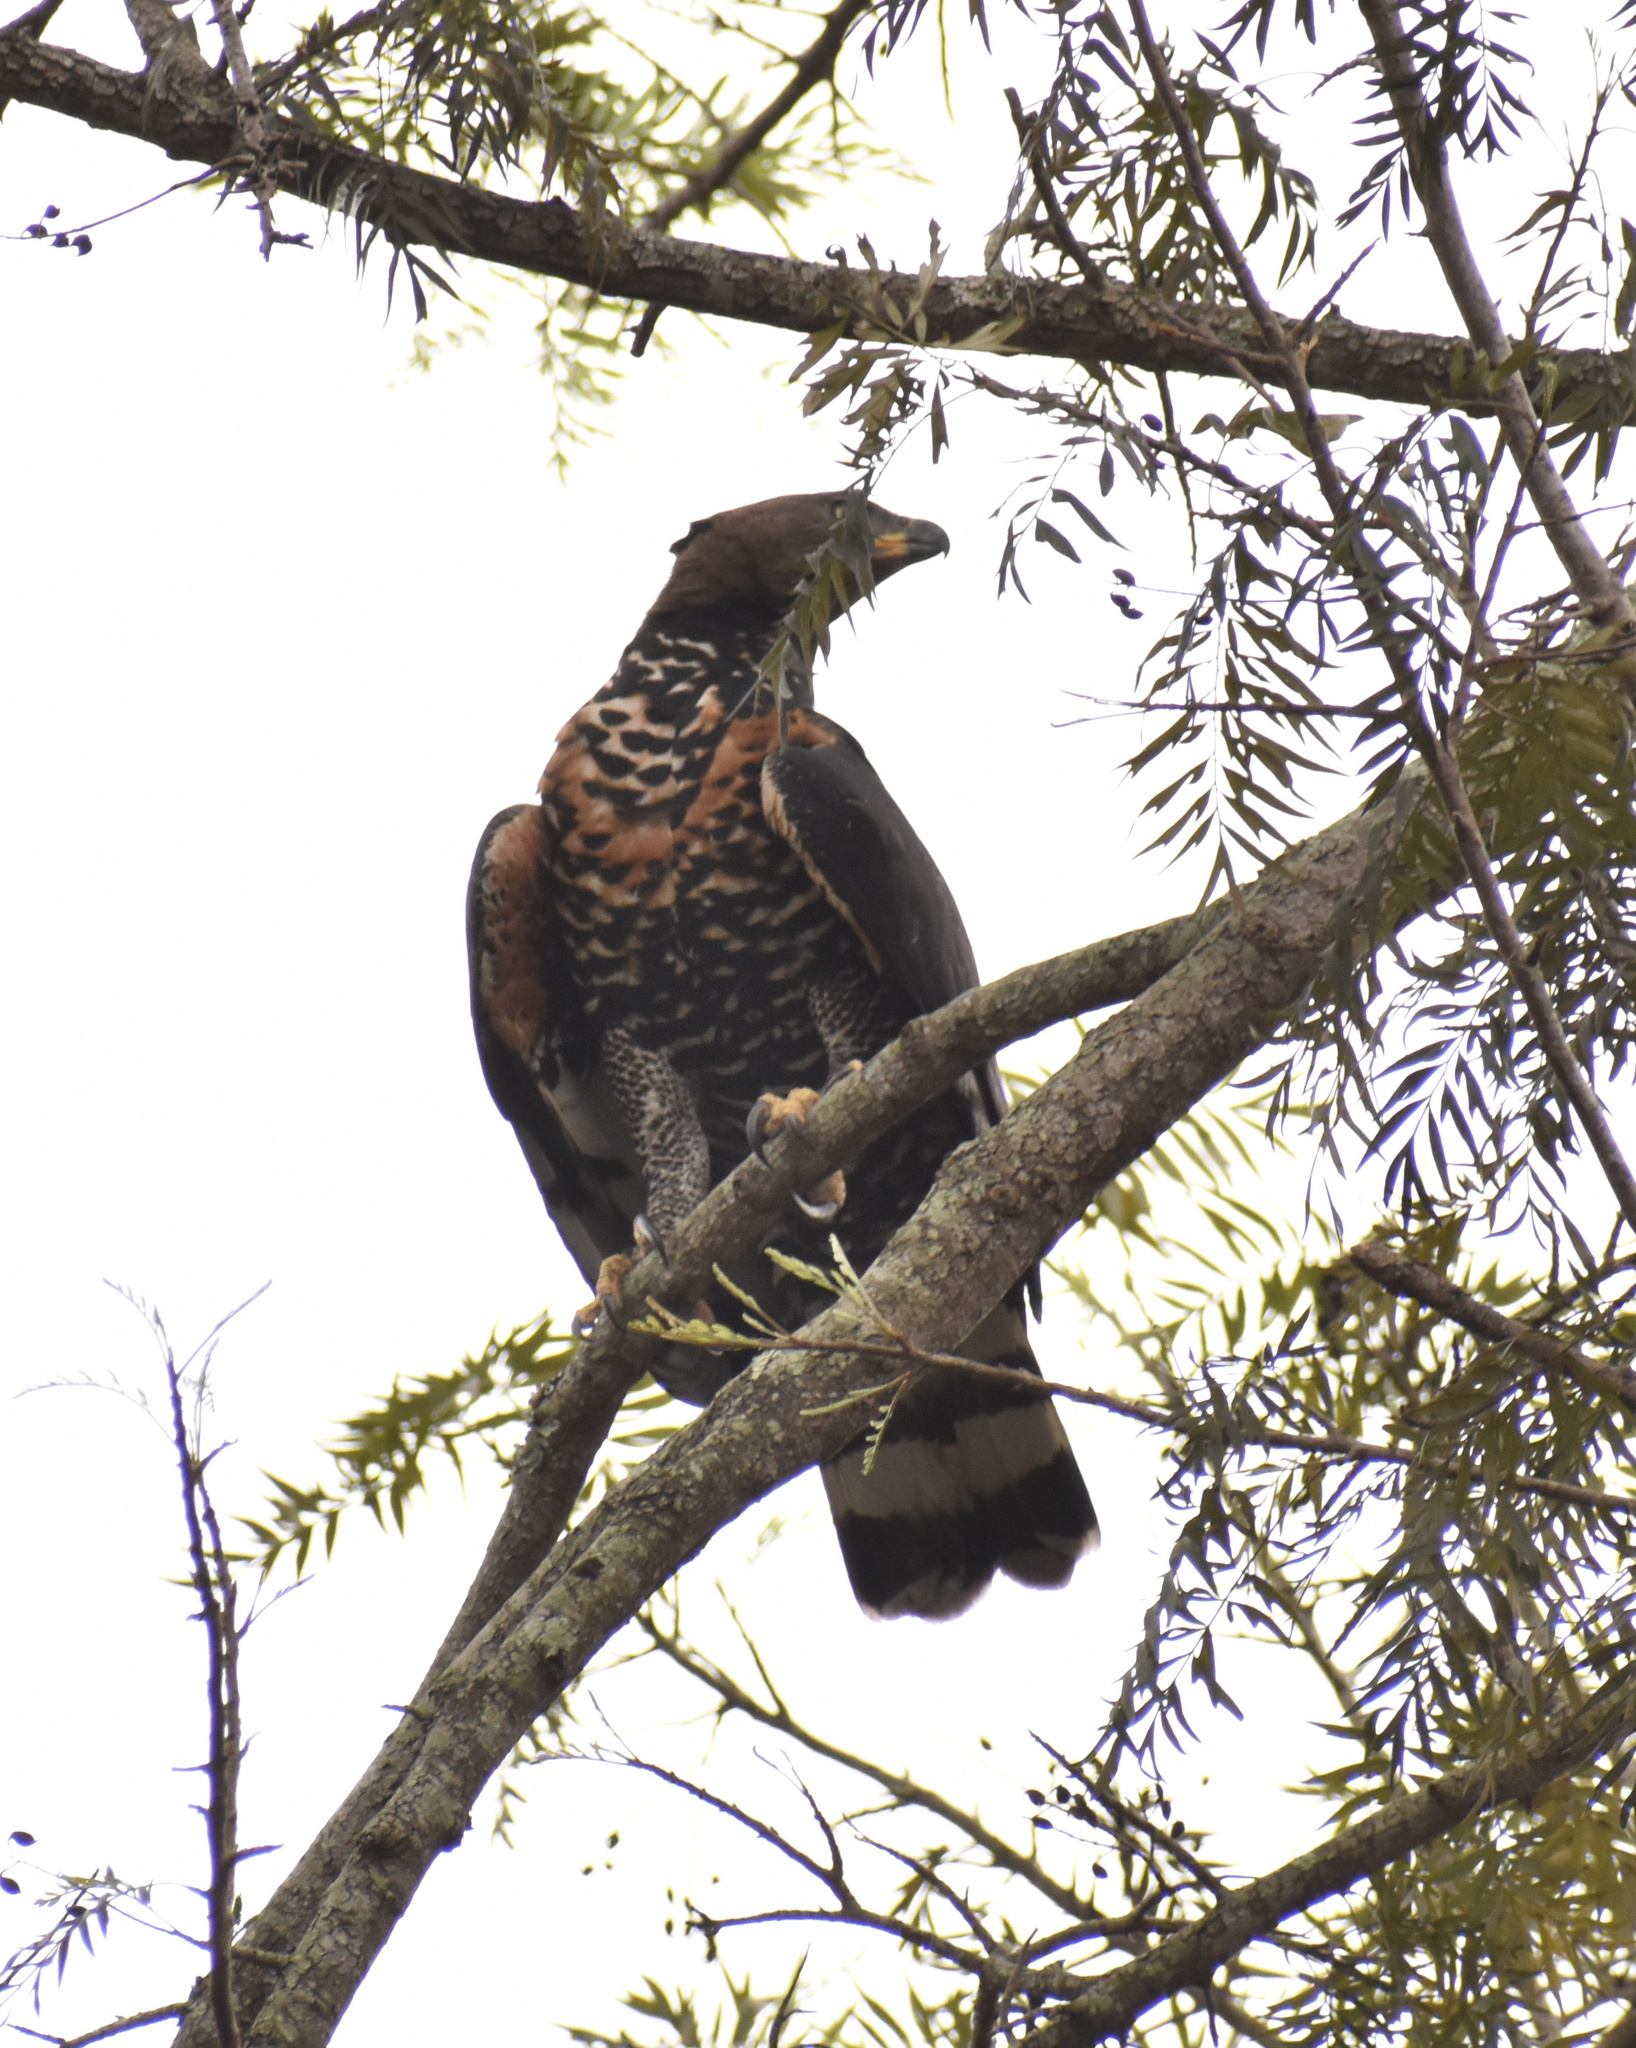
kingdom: Animalia
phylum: Chordata
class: Aves
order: Accipitriformes
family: Accipitridae
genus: Stephanoaetus
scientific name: Stephanoaetus coronatus
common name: Crowned eagle
